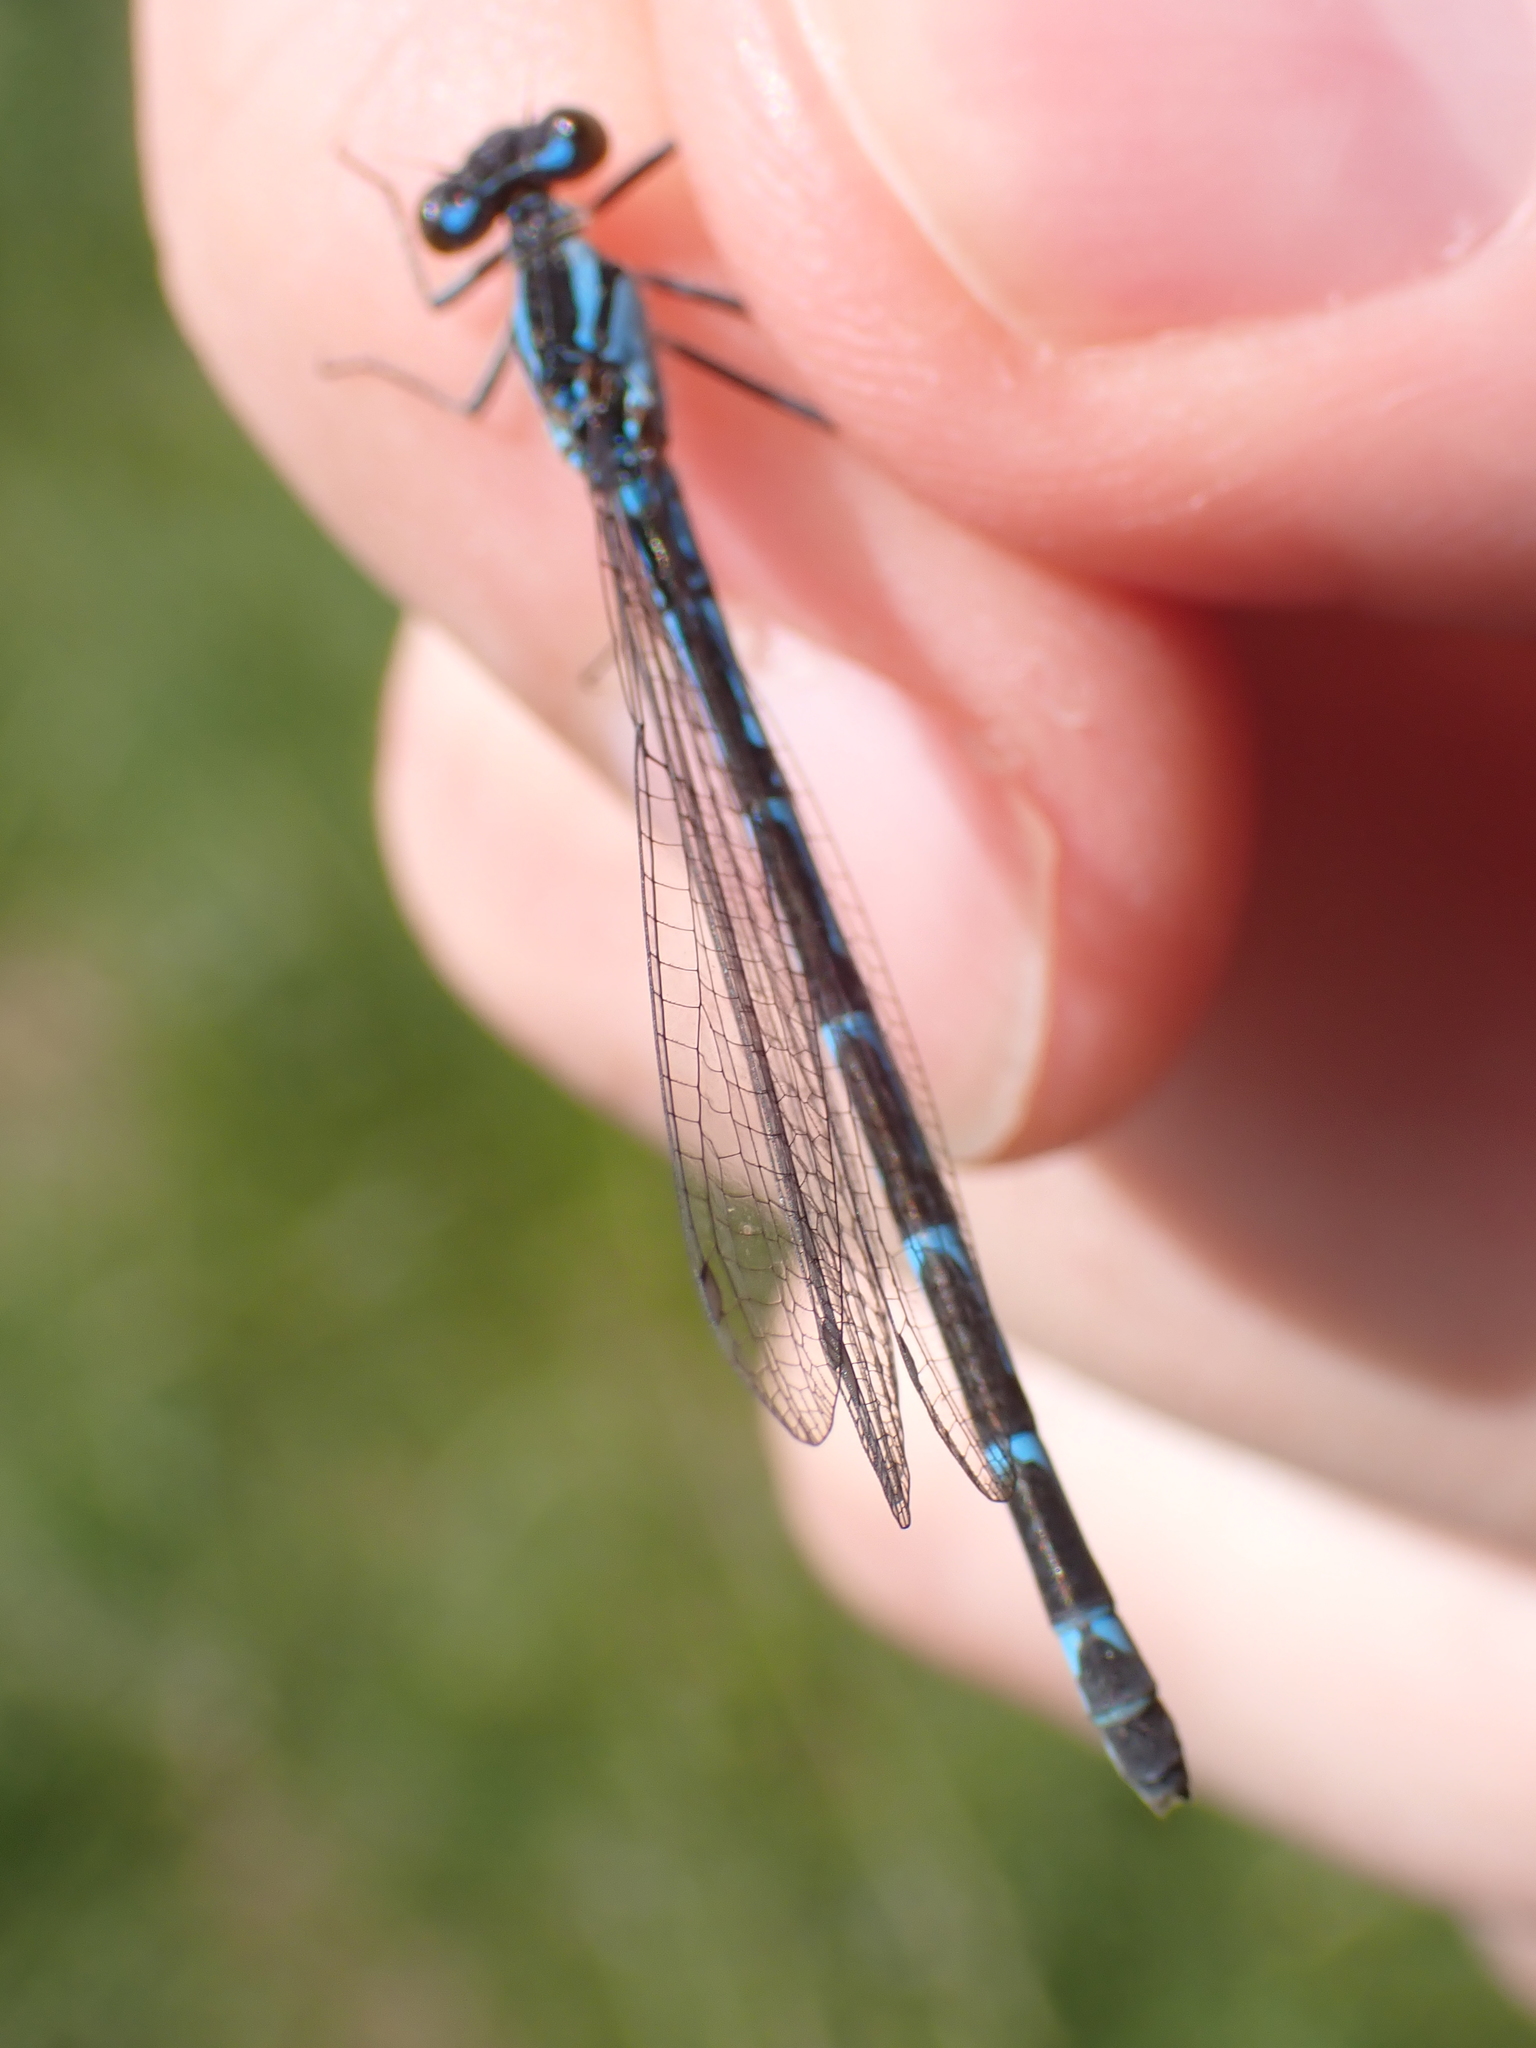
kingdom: Animalia
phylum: Arthropoda
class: Insecta
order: Odonata
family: Coenagrionidae
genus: Enallagma
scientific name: Enallagma cyathigerum
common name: Common blue damselfly
